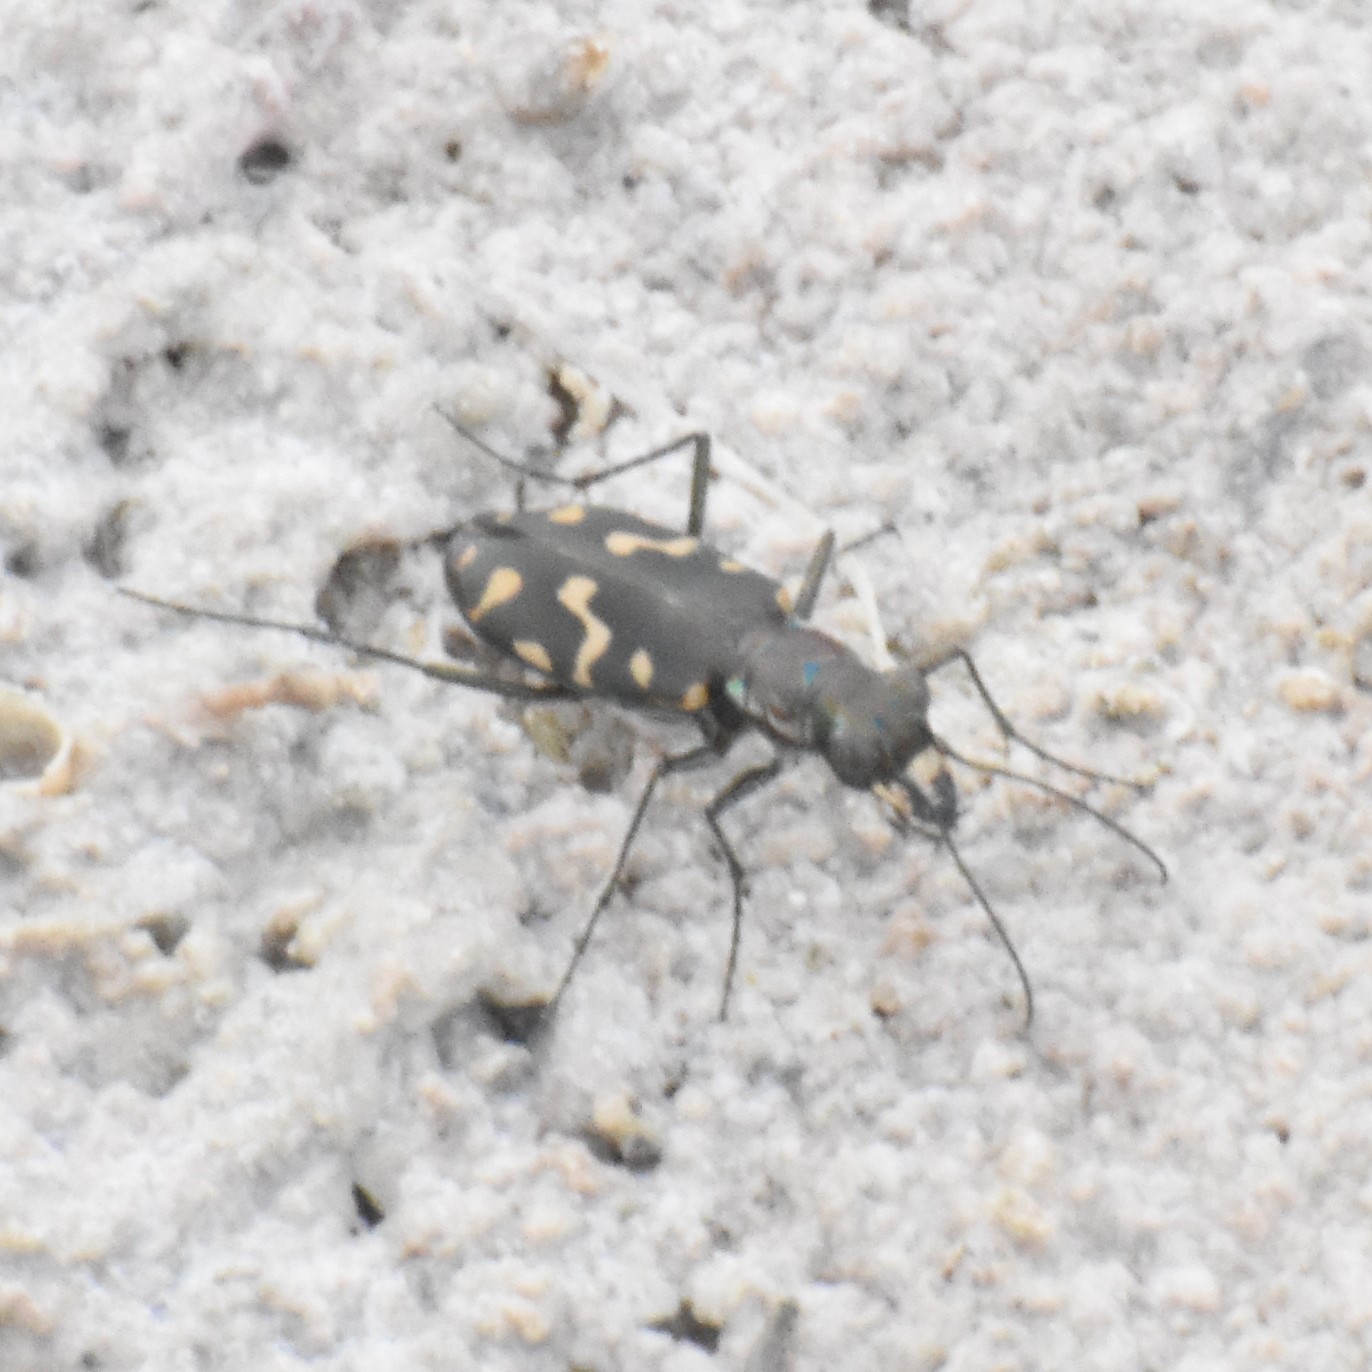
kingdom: Animalia
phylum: Arthropoda
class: Insecta
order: Coleoptera
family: Carabidae
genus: Cicindela
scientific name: Cicindela hemorrhagica
